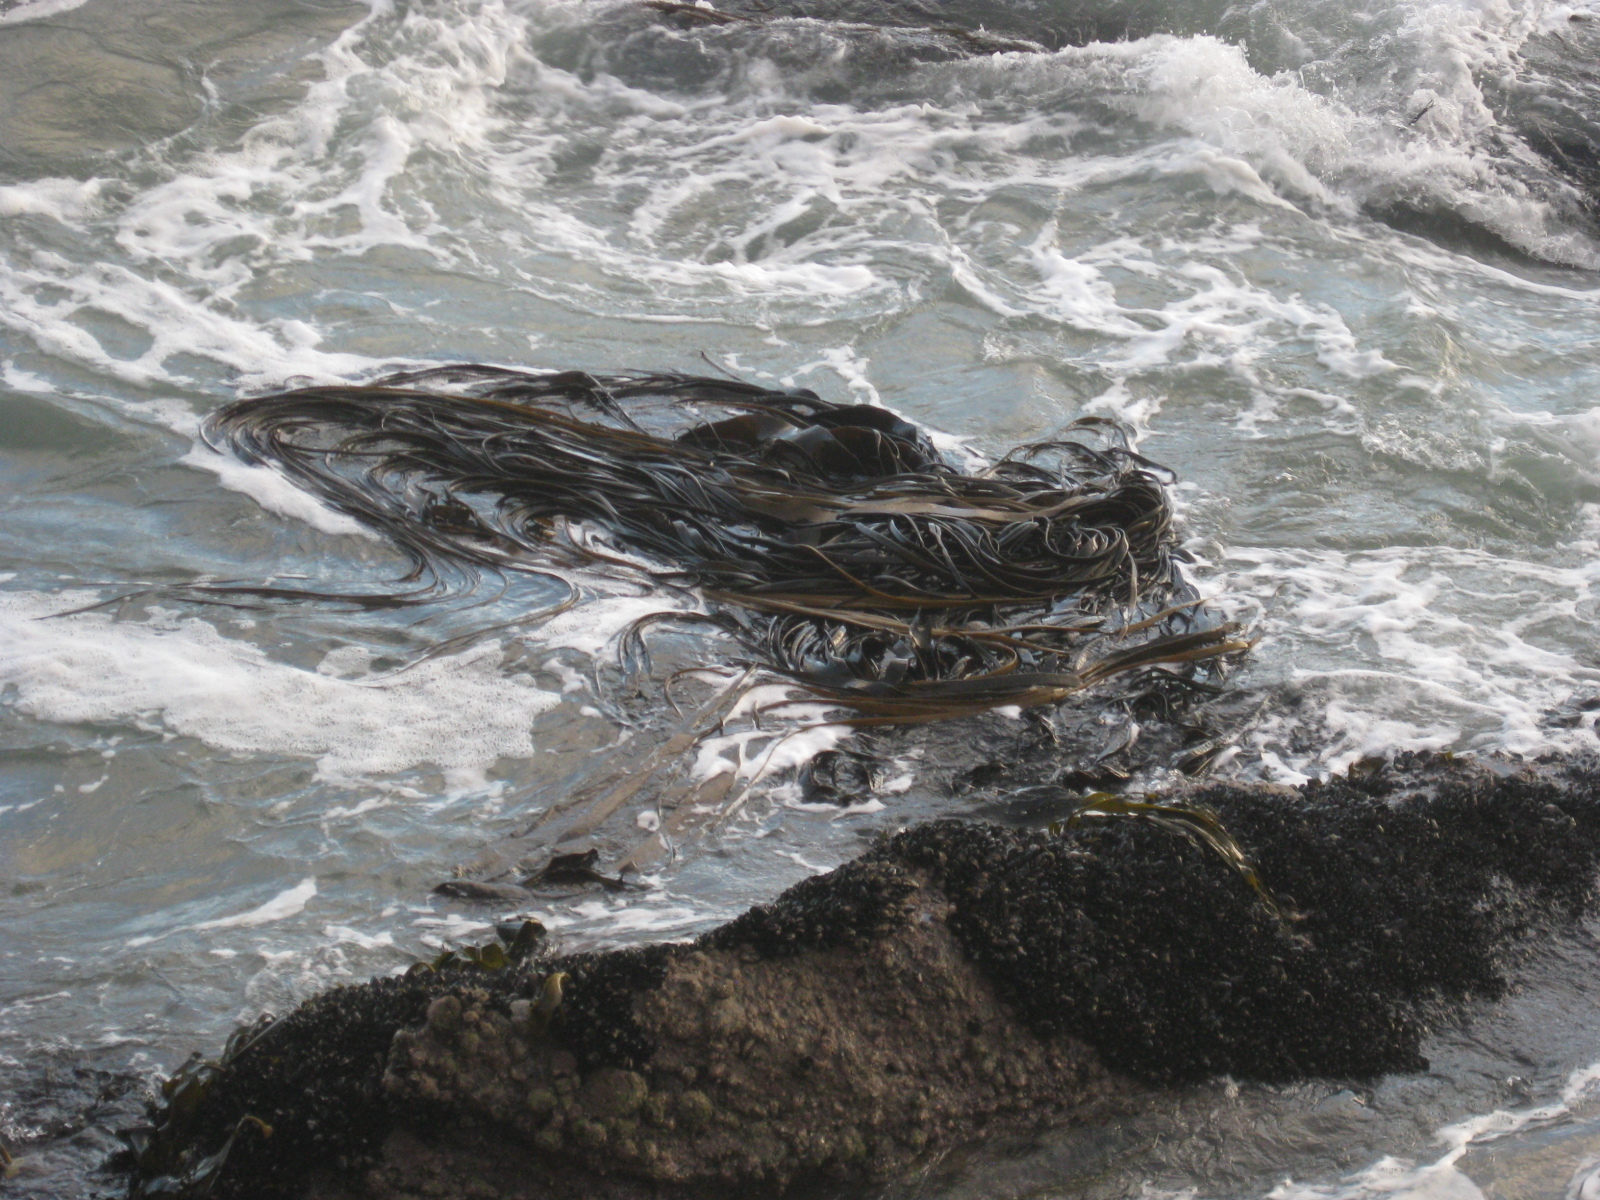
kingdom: Chromista
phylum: Ochrophyta
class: Phaeophyceae
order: Fucales
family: Durvillaeaceae
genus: Durvillaea
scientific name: Durvillaea antarctica
